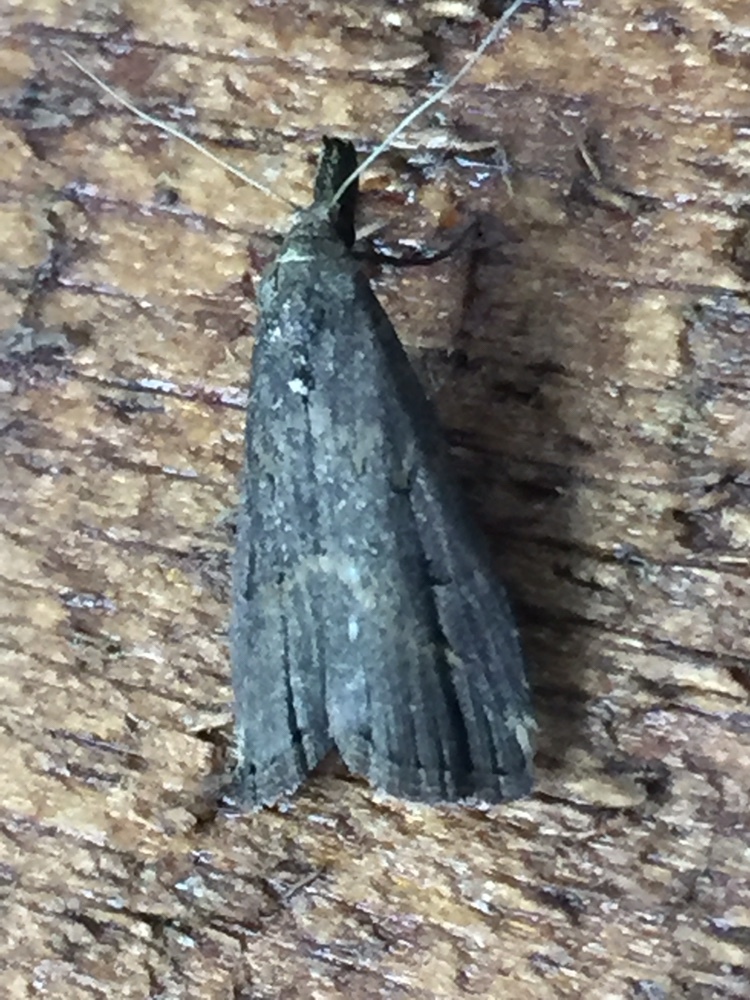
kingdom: Animalia
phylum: Arthropoda
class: Insecta
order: Lepidoptera
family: Erebidae
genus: Schrankia
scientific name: Schrankia costaestrigalis
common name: Pinion-streaked snout
